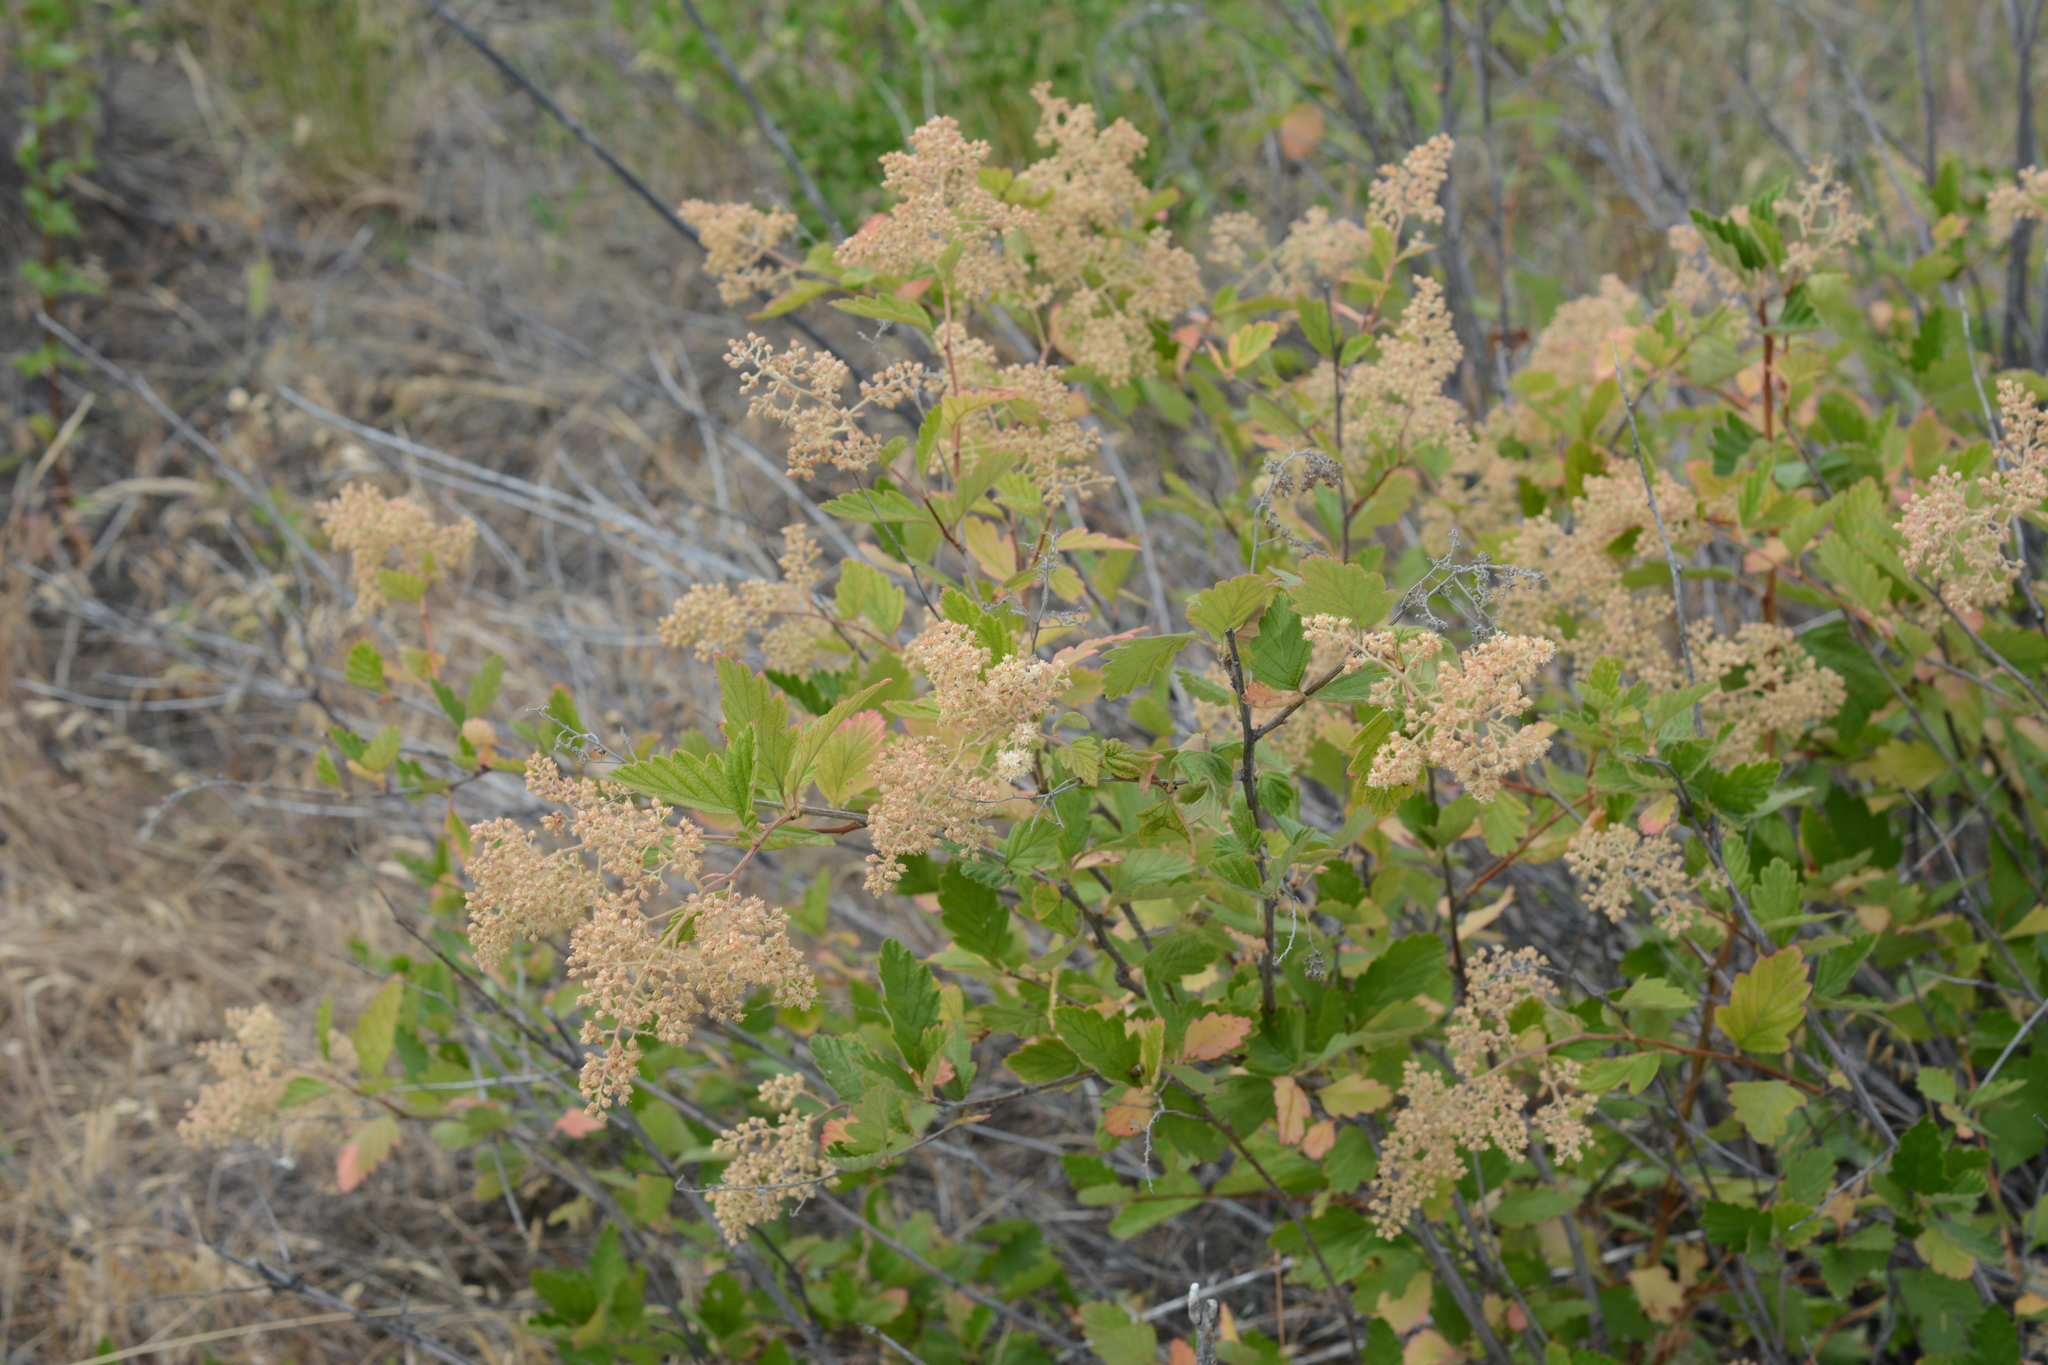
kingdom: Plantae
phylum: Tracheophyta
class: Magnoliopsida
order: Rosales
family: Rosaceae
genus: Holodiscus
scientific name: Holodiscus discolor
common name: Oceanspray
